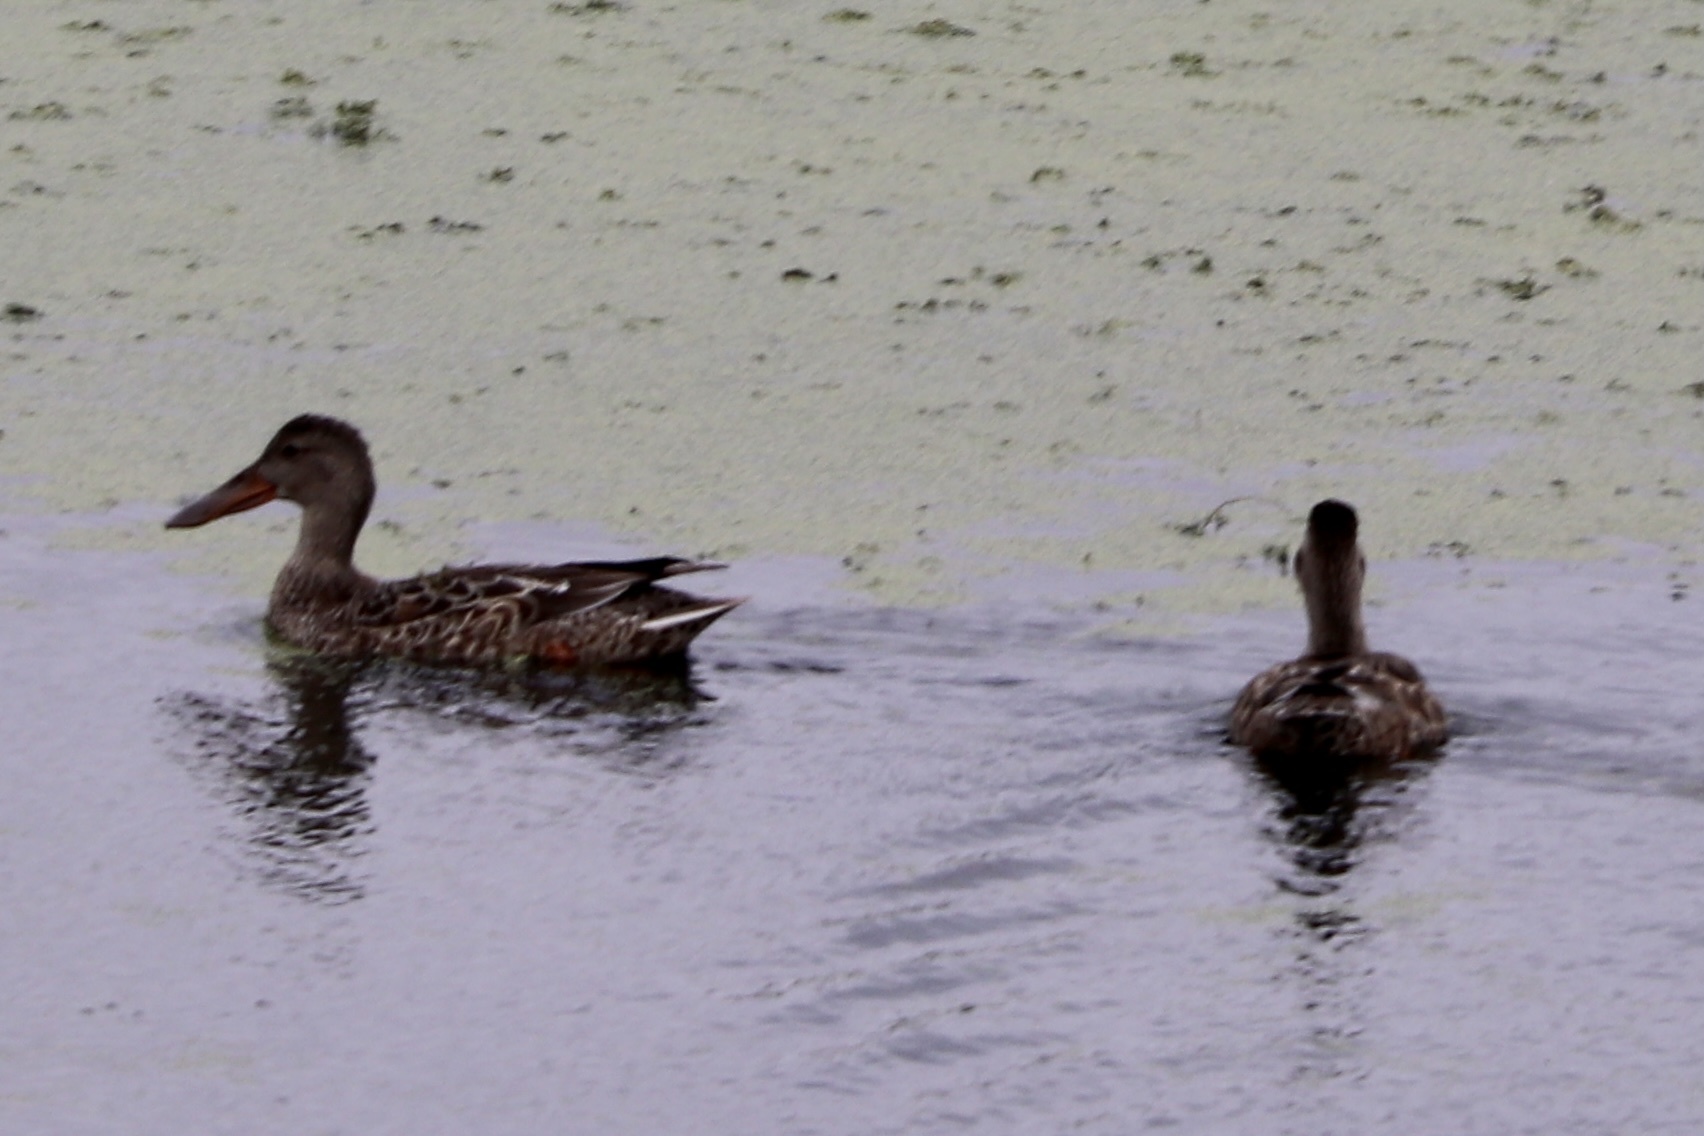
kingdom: Animalia
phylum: Chordata
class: Aves
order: Anseriformes
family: Anatidae
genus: Spatula
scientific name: Spatula clypeata
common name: Northern shoveler
